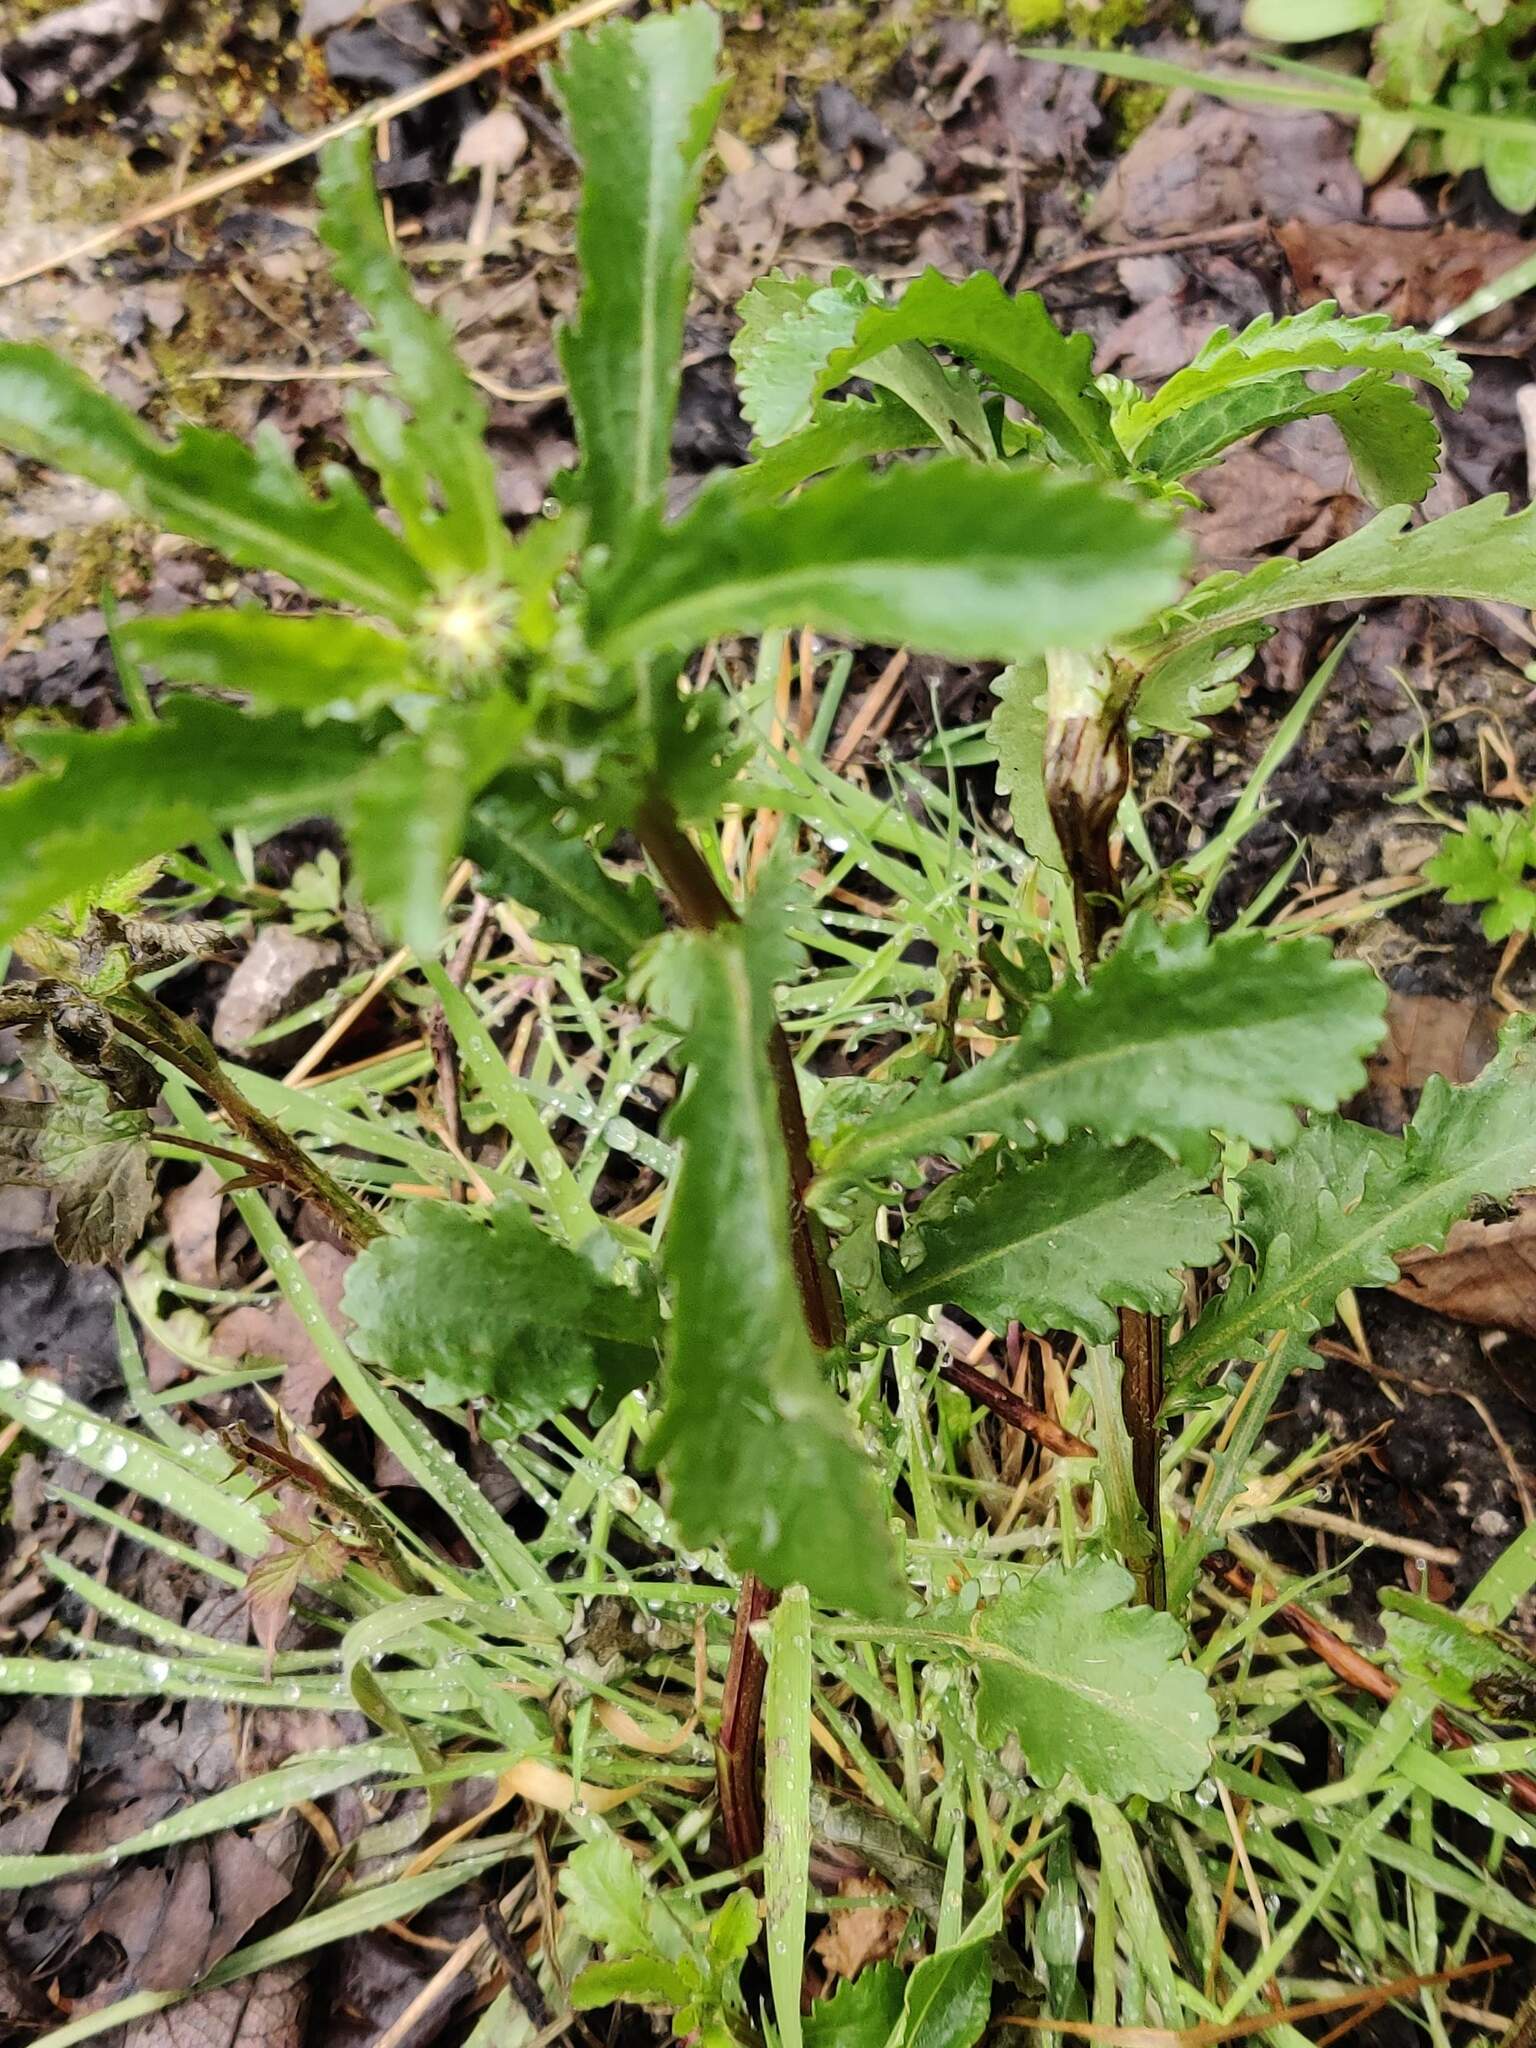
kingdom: Plantae
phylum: Tracheophyta
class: Magnoliopsida
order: Asterales
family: Asteraceae
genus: Leucanthemum
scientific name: Leucanthemum vulgare
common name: Oxeye daisy
